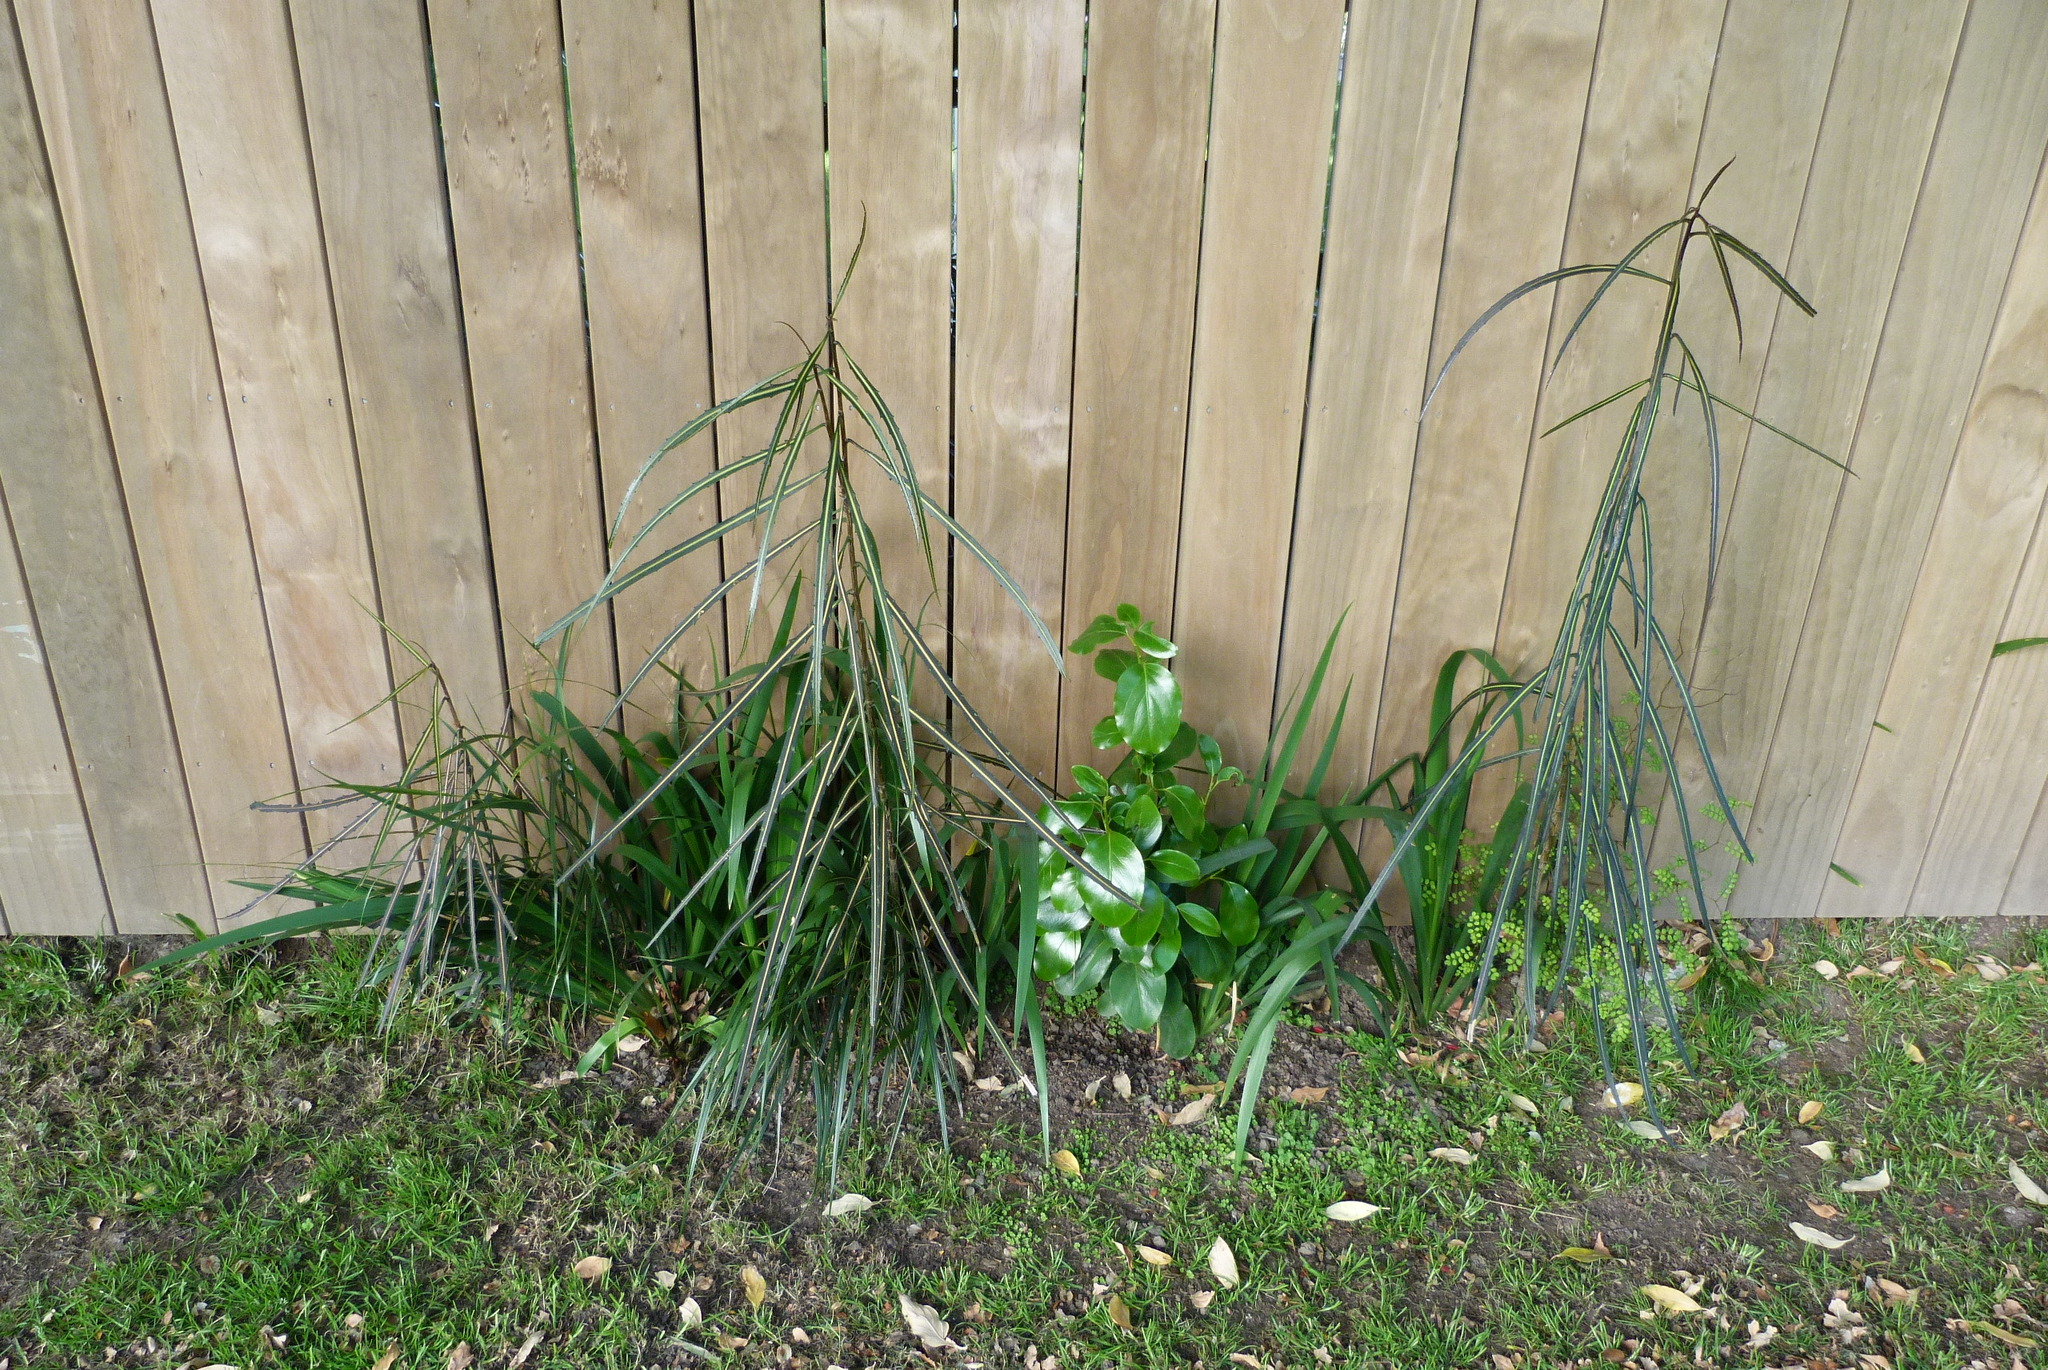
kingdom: Plantae
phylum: Tracheophyta
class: Magnoliopsida
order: Apiales
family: Araliaceae
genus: Pseudopanax
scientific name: Pseudopanax crassifolius
